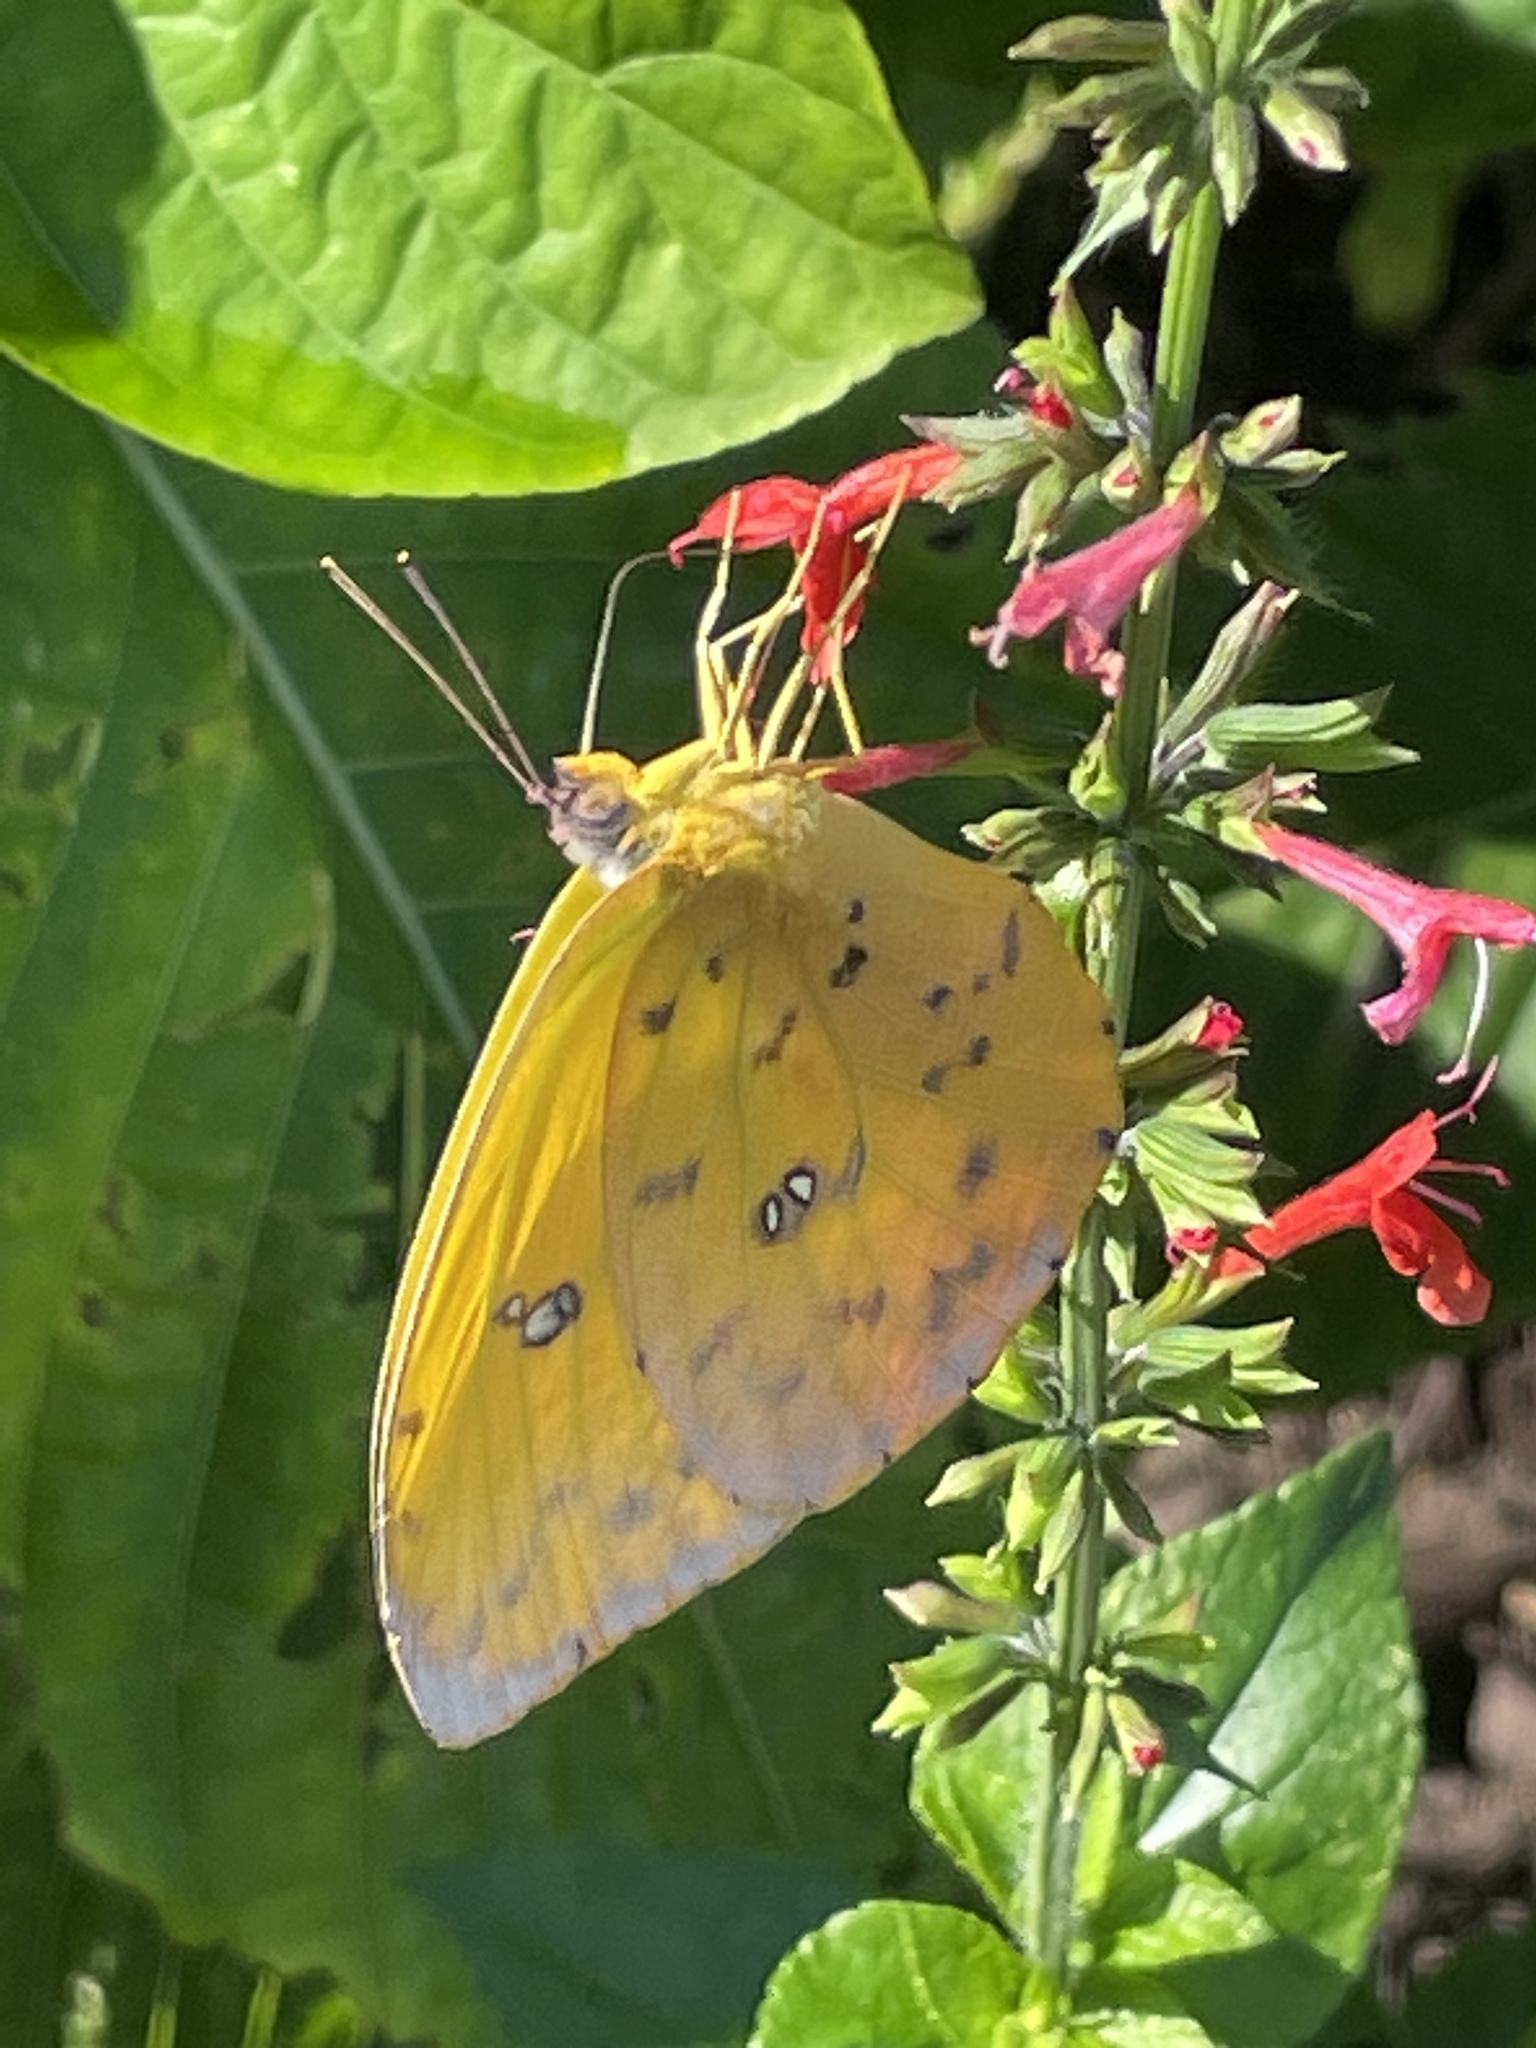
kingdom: Animalia
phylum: Arthropoda
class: Insecta
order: Lepidoptera
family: Pieridae
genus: Phoebis
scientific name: Phoebis philea
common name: Orange-barred giant sulphur
